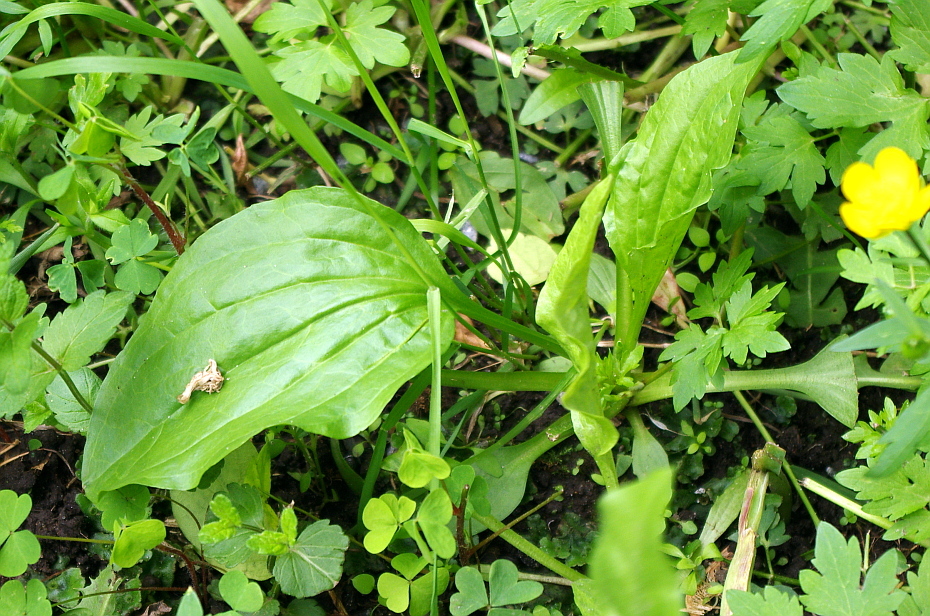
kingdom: Plantae
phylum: Tracheophyta
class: Magnoliopsida
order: Lamiales
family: Plantaginaceae
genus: Plantago
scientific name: Plantago major
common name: Common plantain
